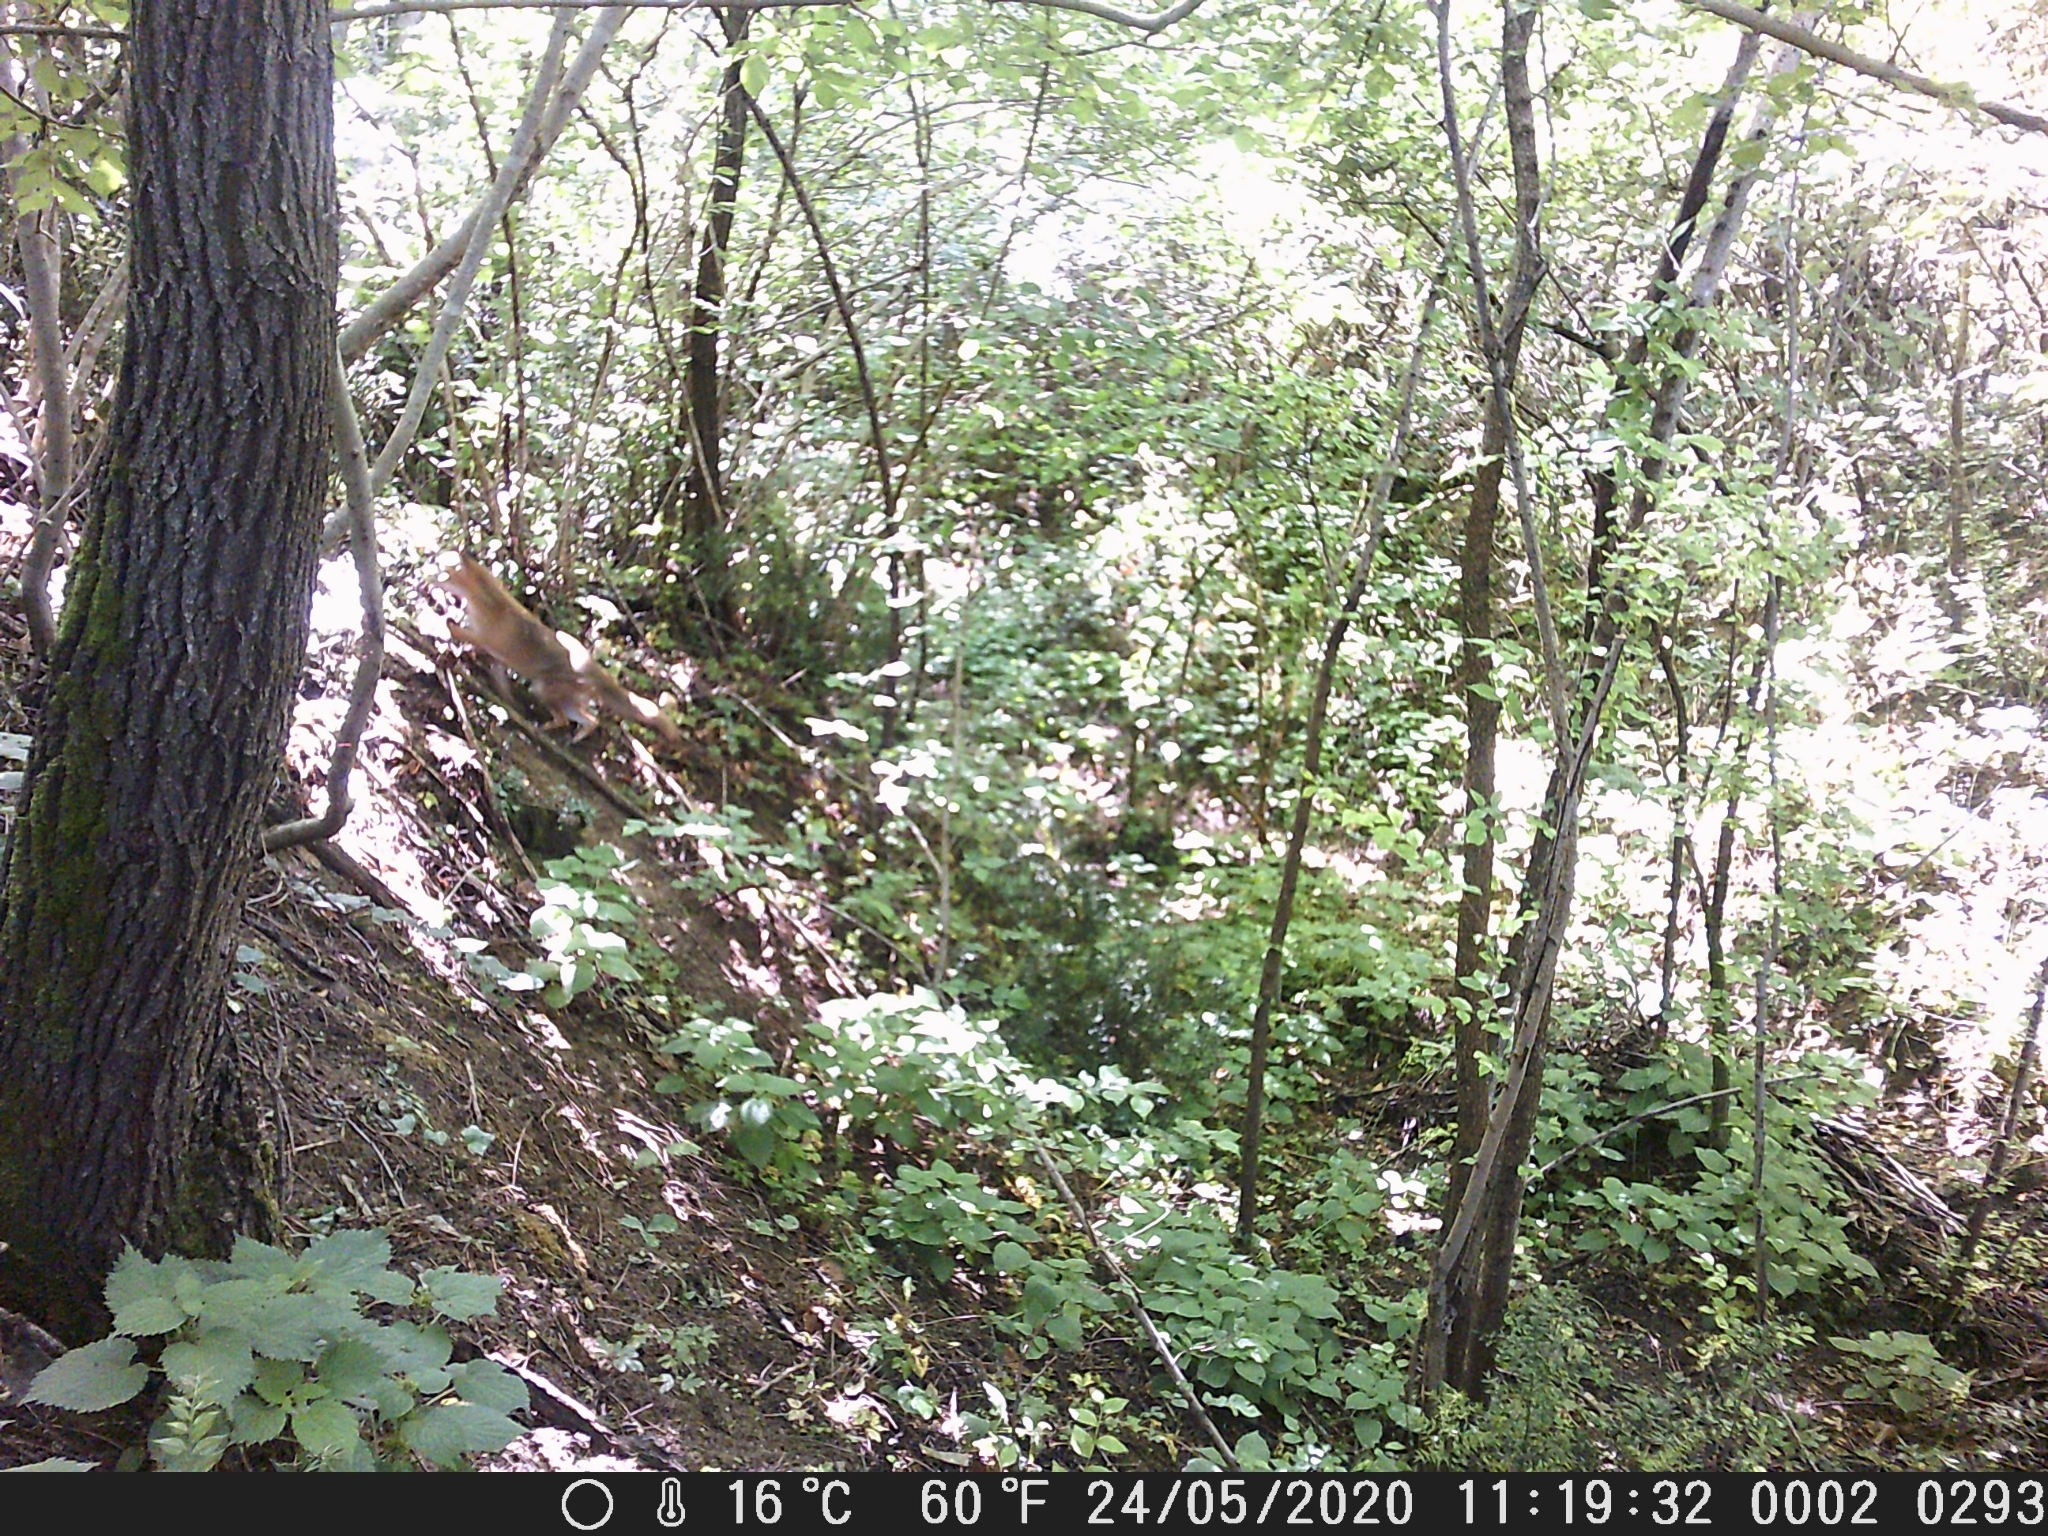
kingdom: Animalia
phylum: Chordata
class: Mammalia
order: Carnivora
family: Canidae
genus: Vulpes
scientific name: Vulpes vulpes
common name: Red fox
